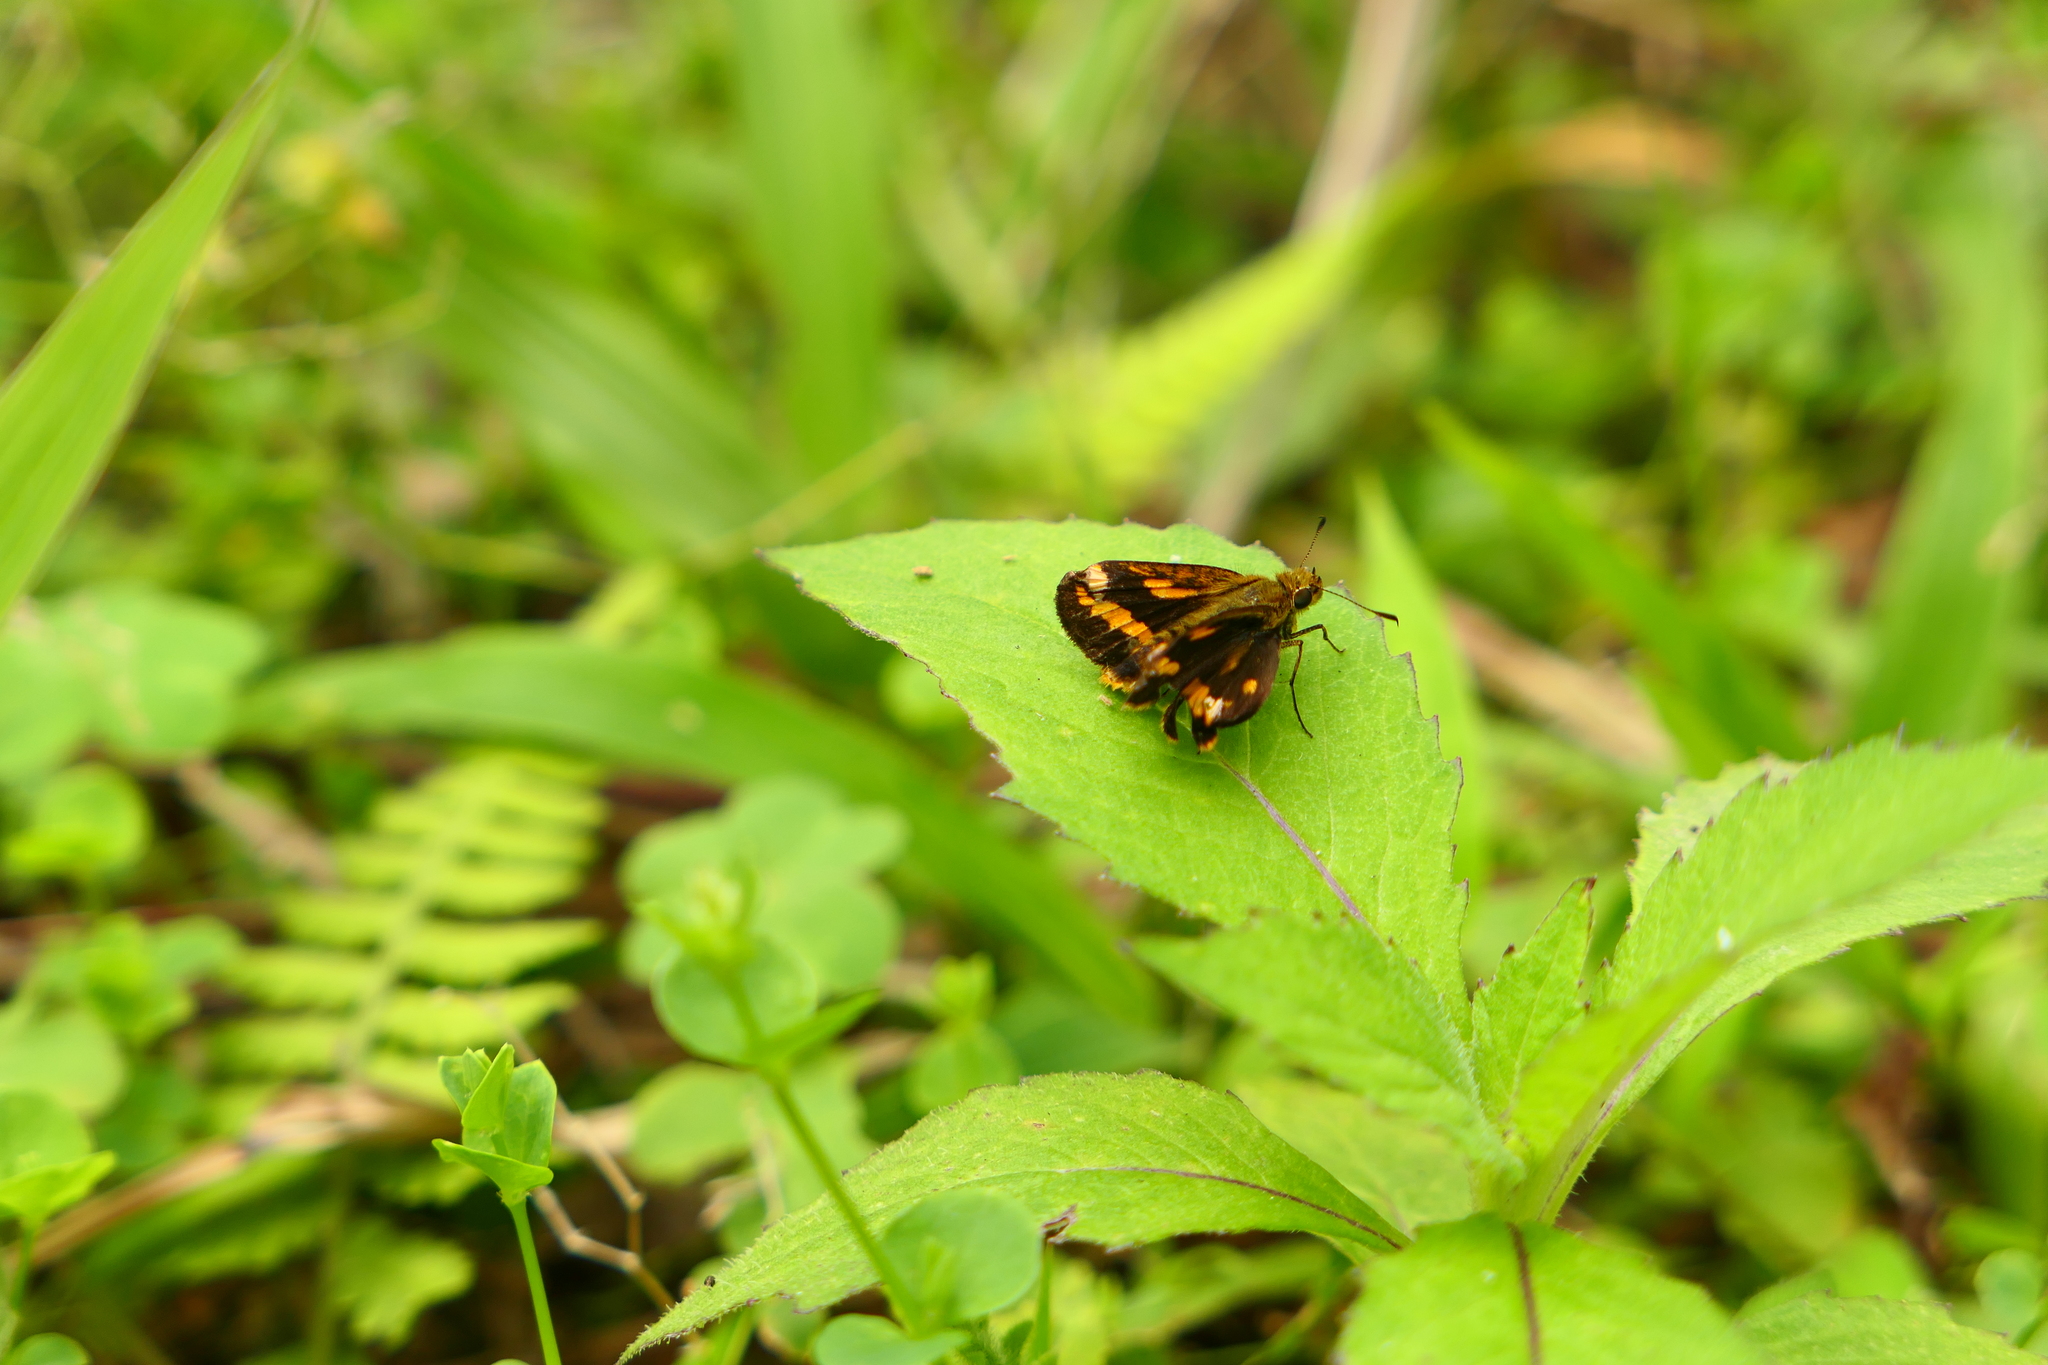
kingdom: Animalia
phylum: Arthropoda
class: Insecta
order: Lepidoptera
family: Hesperiidae
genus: Potanthus
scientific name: Potanthus confucius
